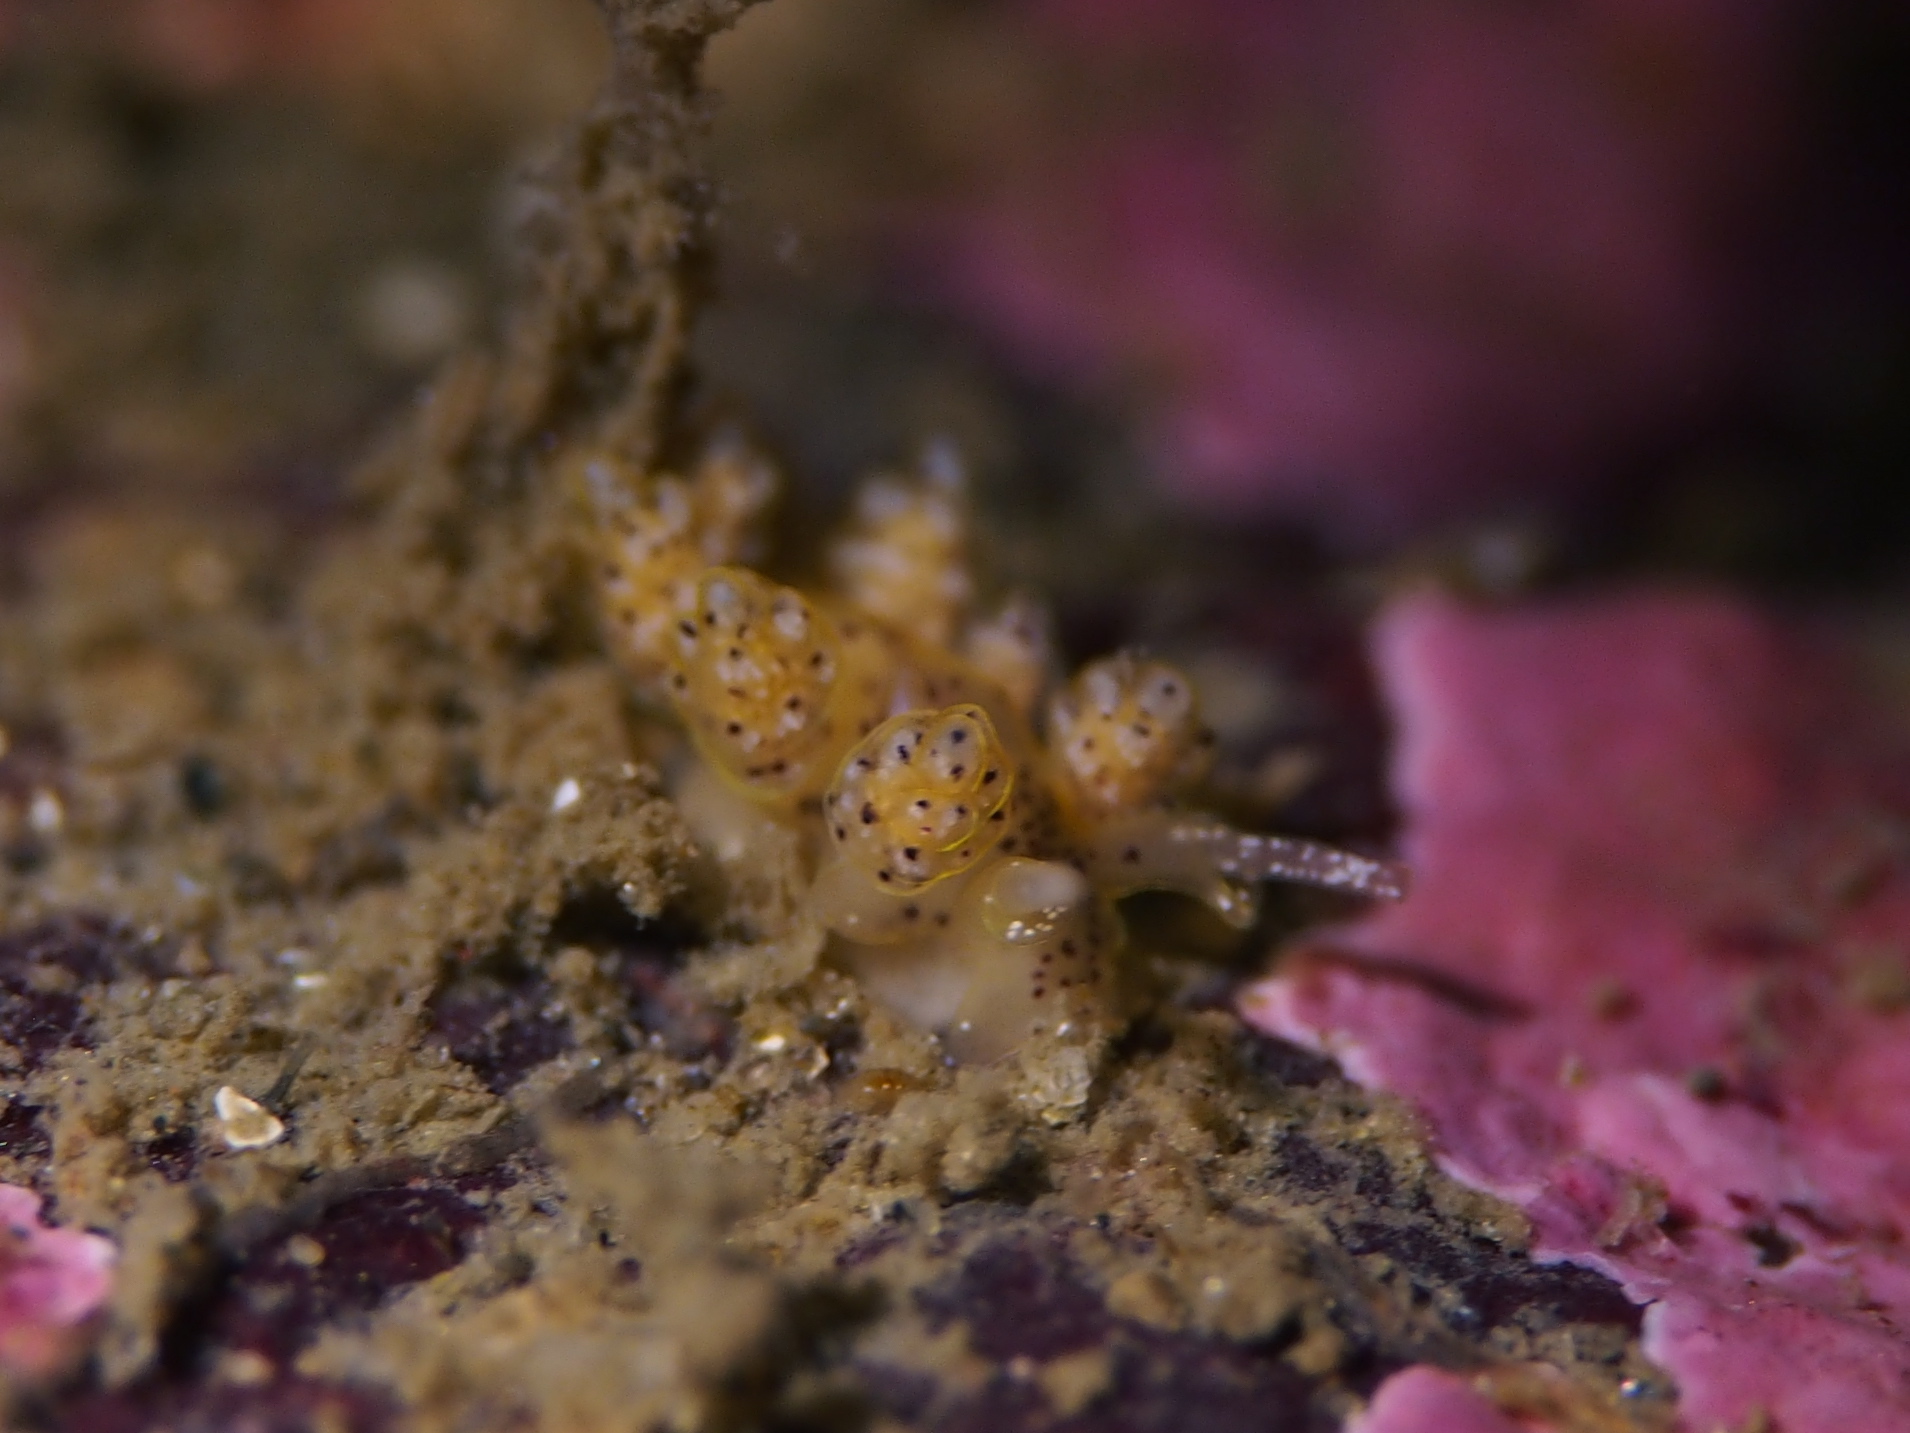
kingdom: Animalia
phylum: Mollusca
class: Gastropoda
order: Nudibranchia
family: Dotidae
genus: Doto
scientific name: Doto dunnei
